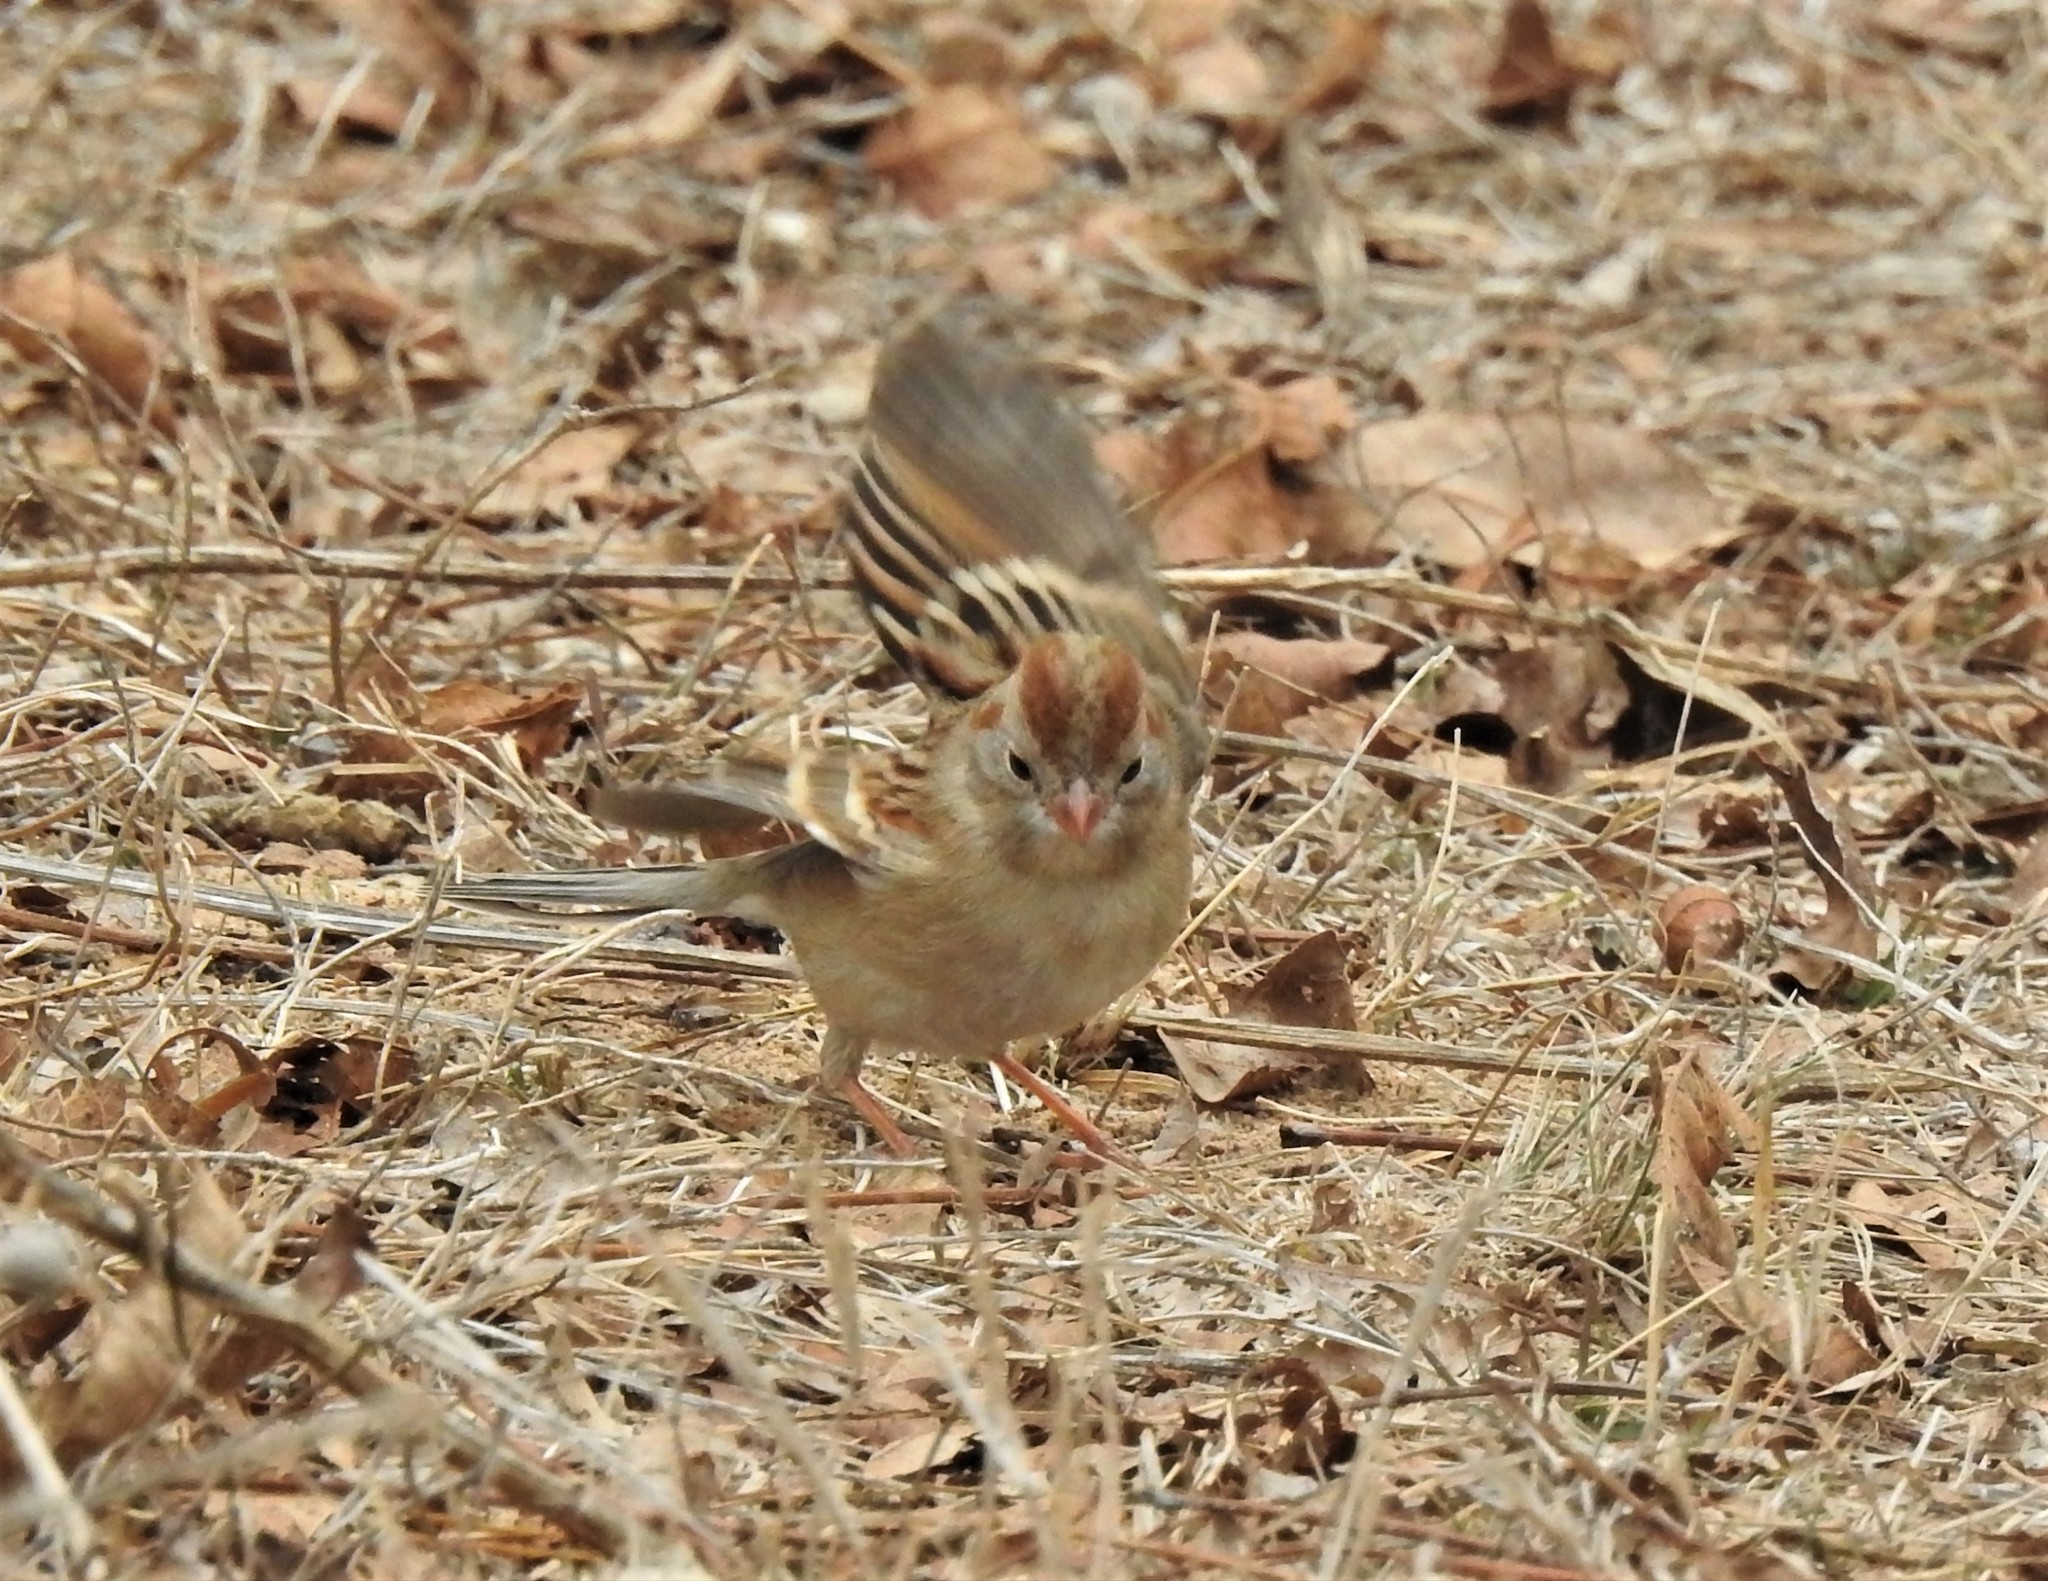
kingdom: Animalia
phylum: Chordata
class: Aves
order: Passeriformes
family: Passerellidae
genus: Spizella
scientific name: Spizella pusilla
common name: Field sparrow
